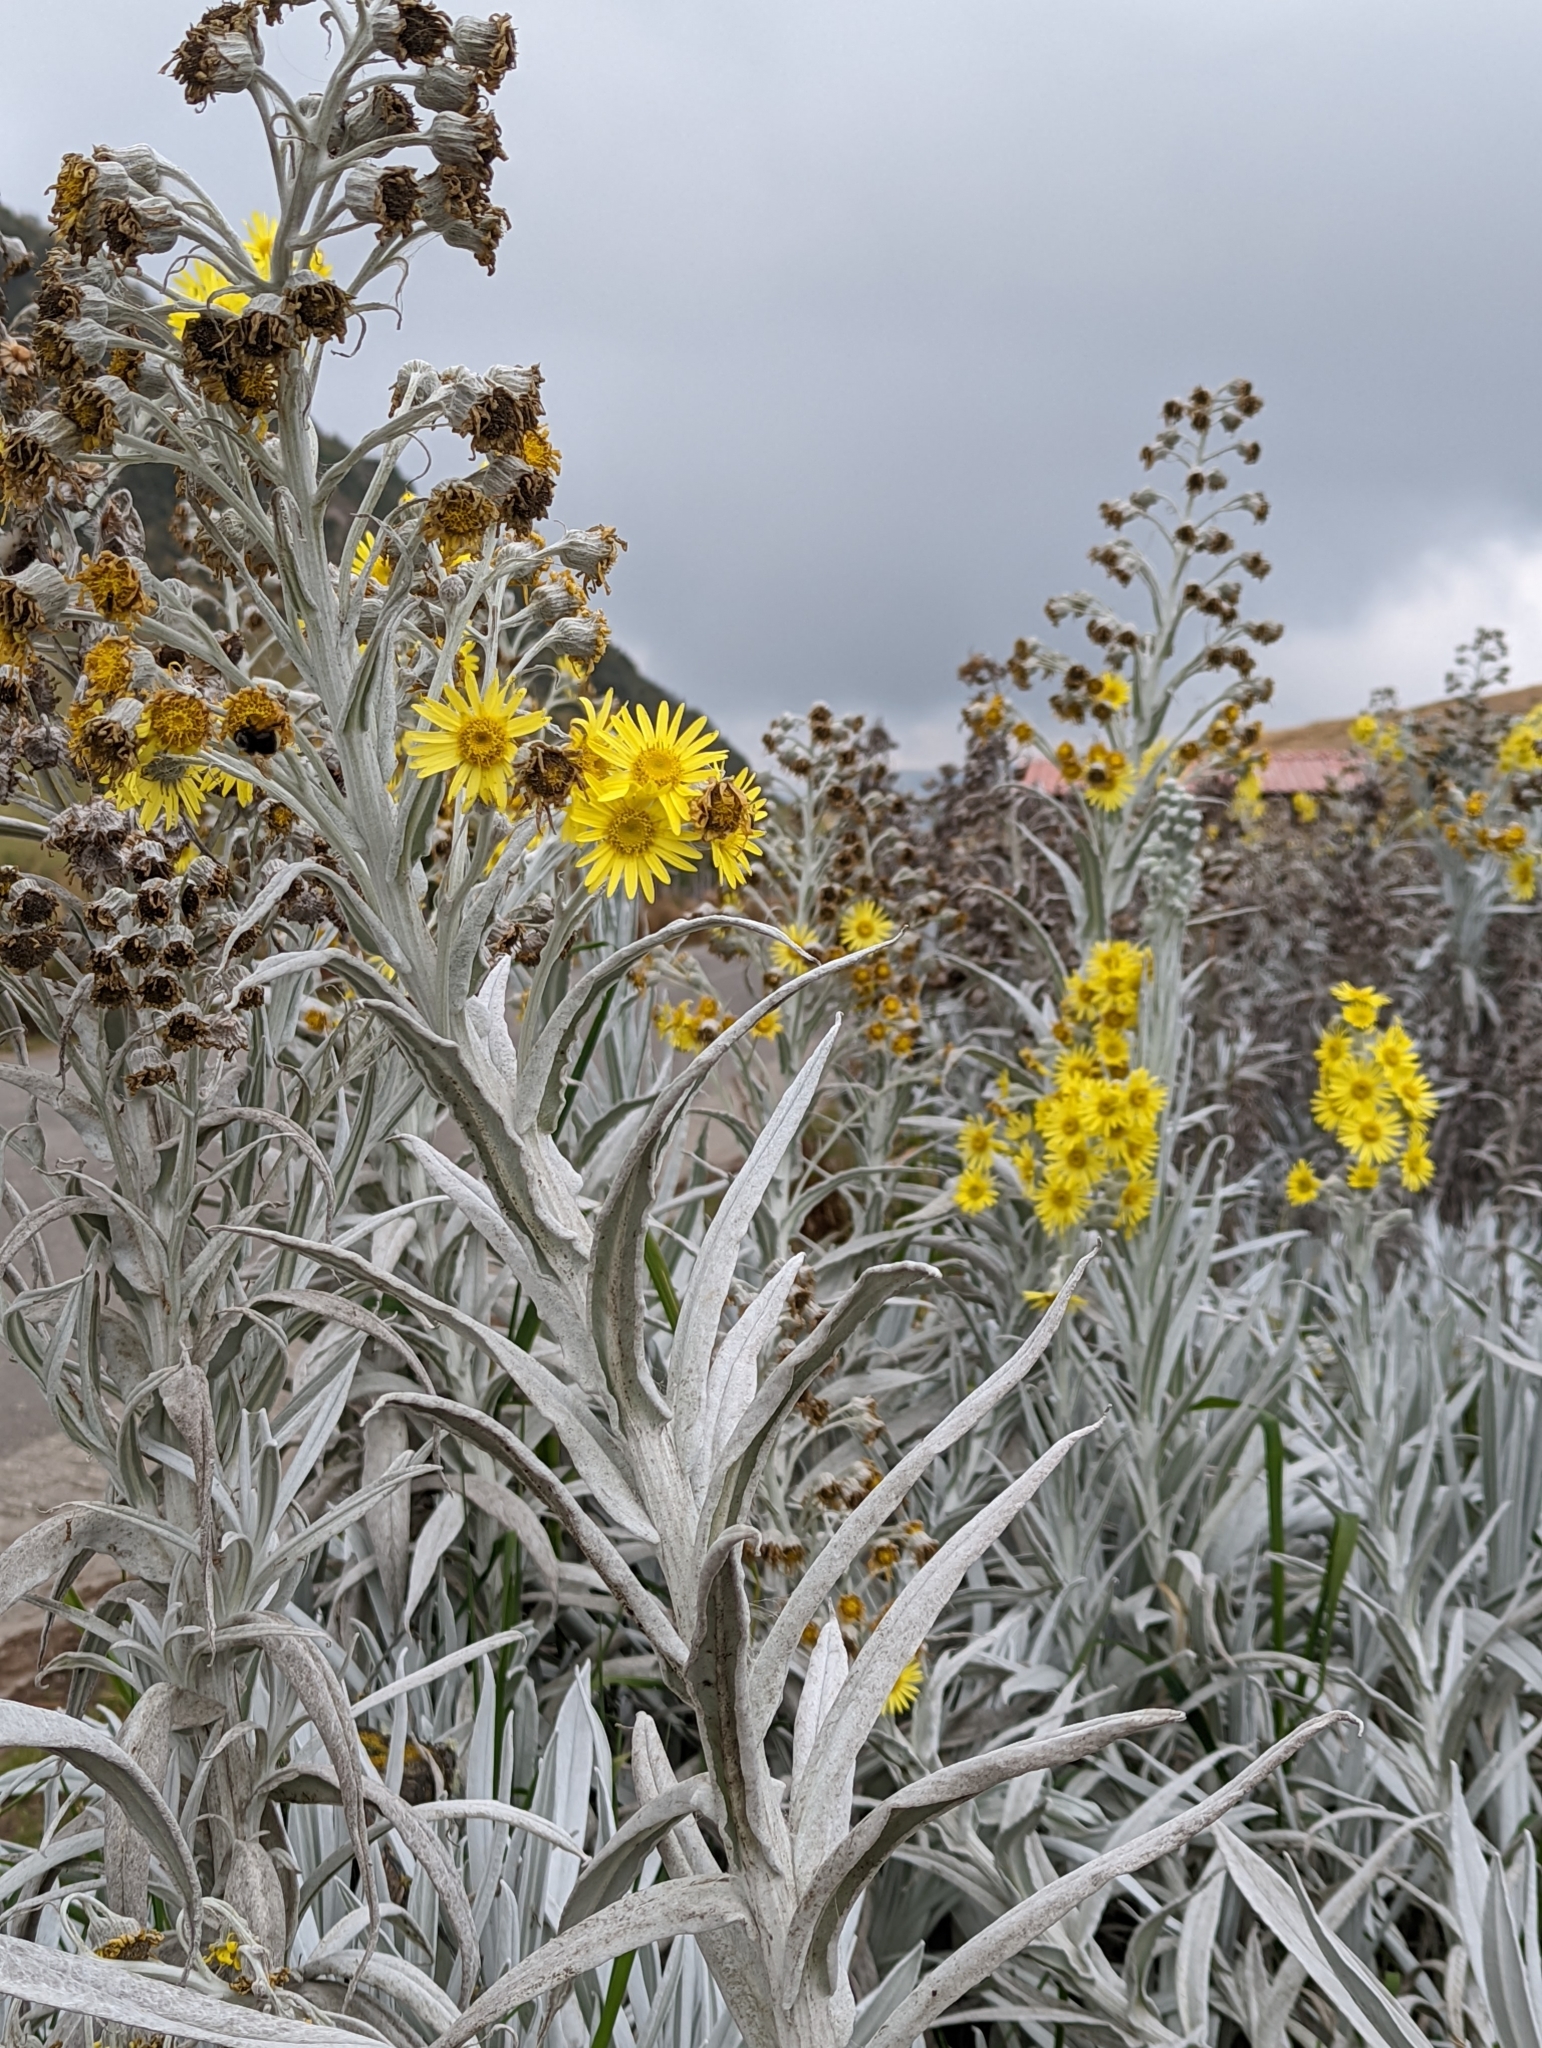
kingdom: Plantae
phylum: Tracheophyta
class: Magnoliopsida
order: Asterales
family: Asteraceae
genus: Senecio
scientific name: Senecio niveoaureus
